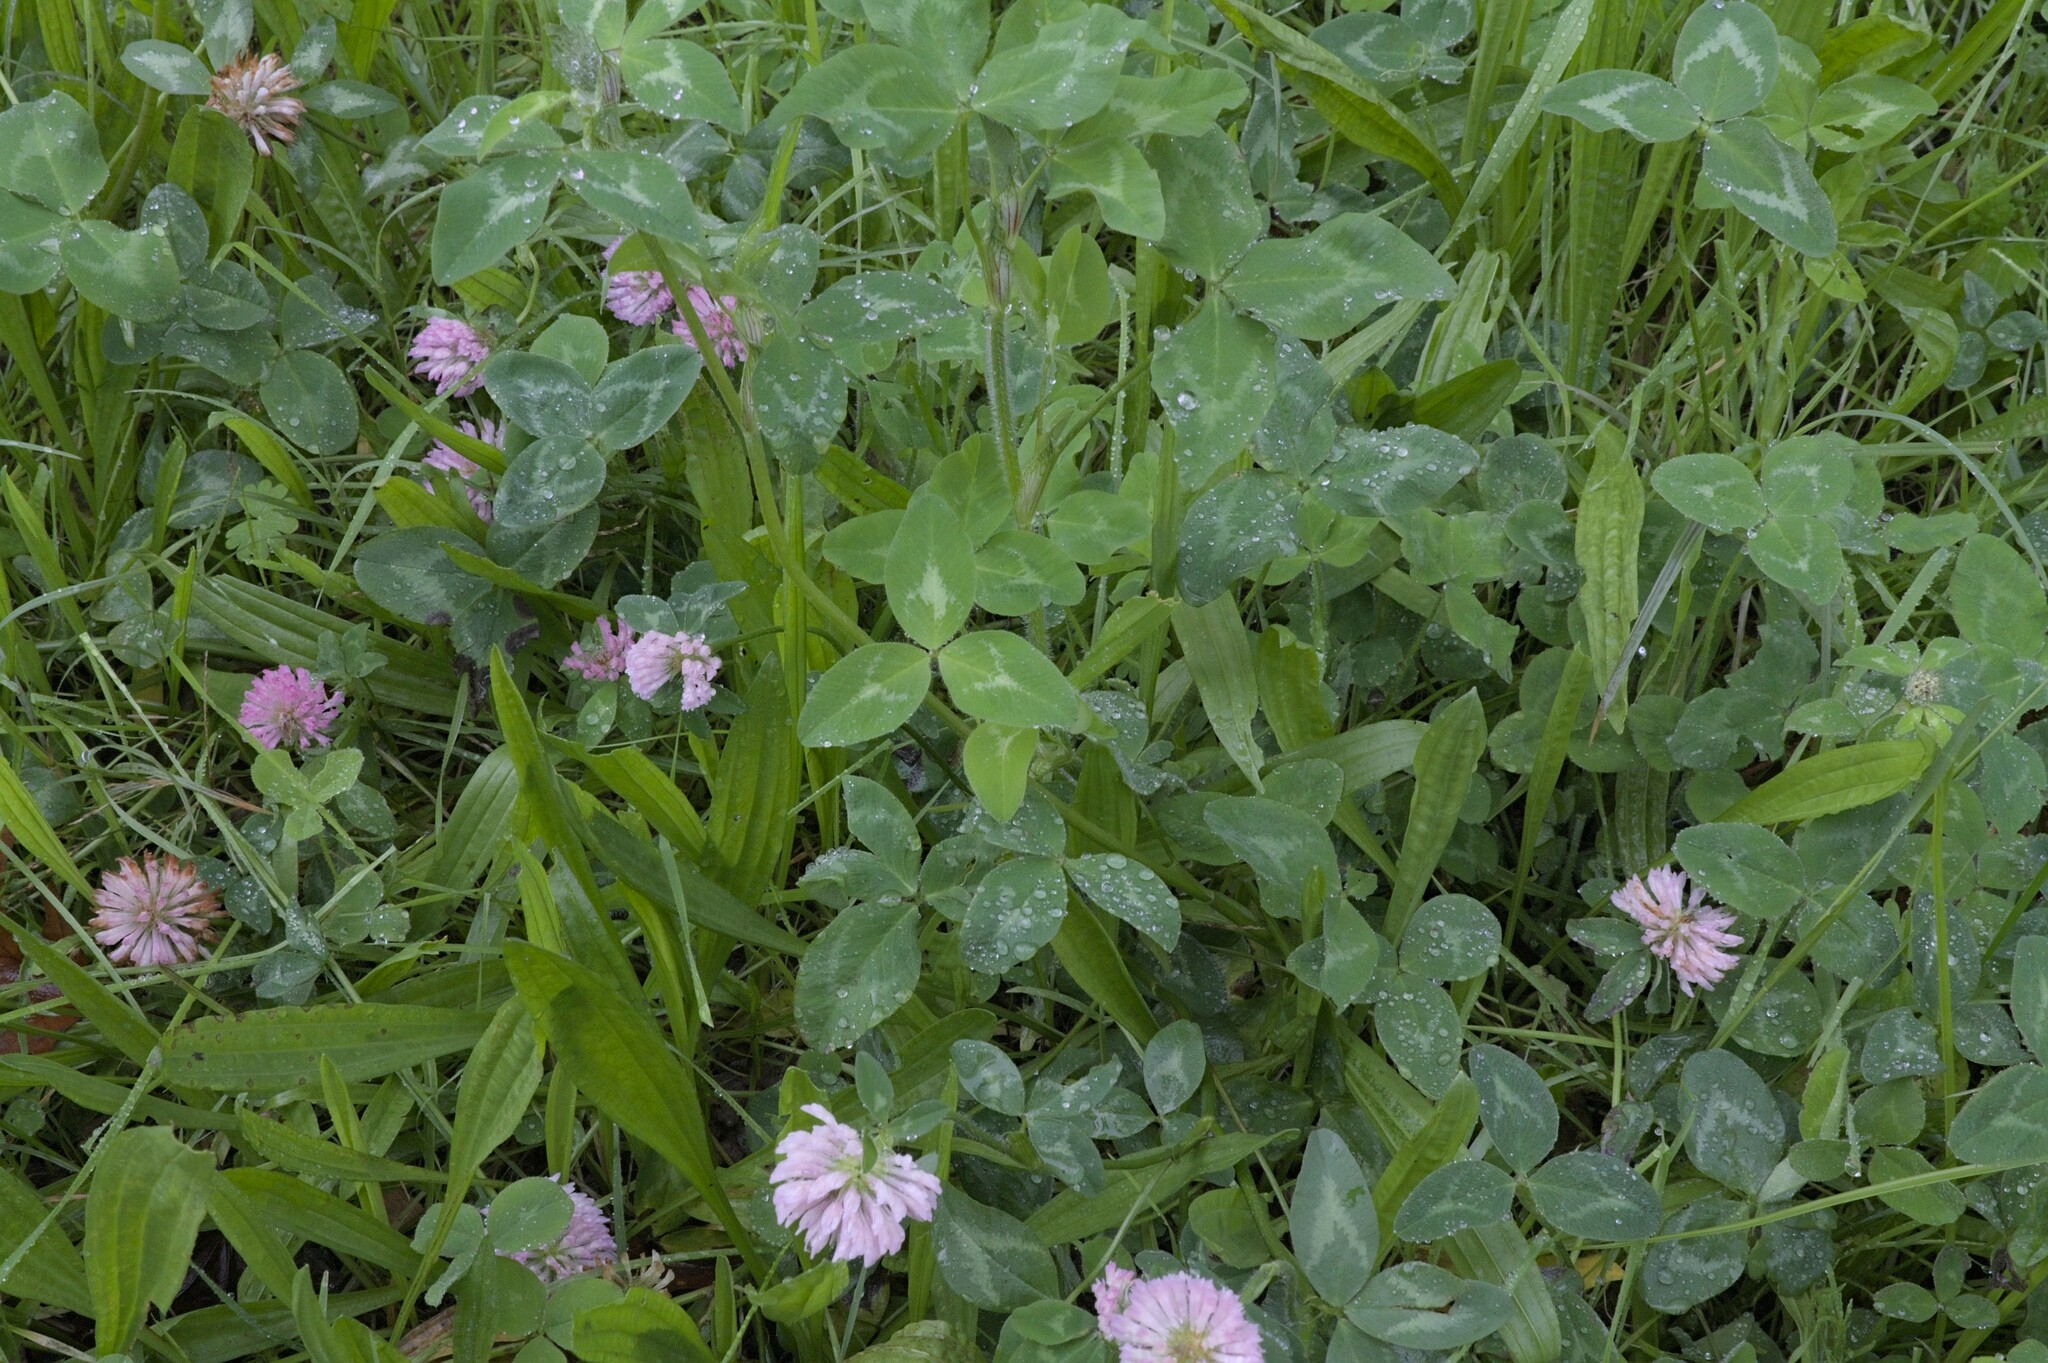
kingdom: Plantae
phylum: Tracheophyta
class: Magnoliopsida
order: Fabales
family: Fabaceae
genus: Trifolium
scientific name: Trifolium pratense
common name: Red clover
